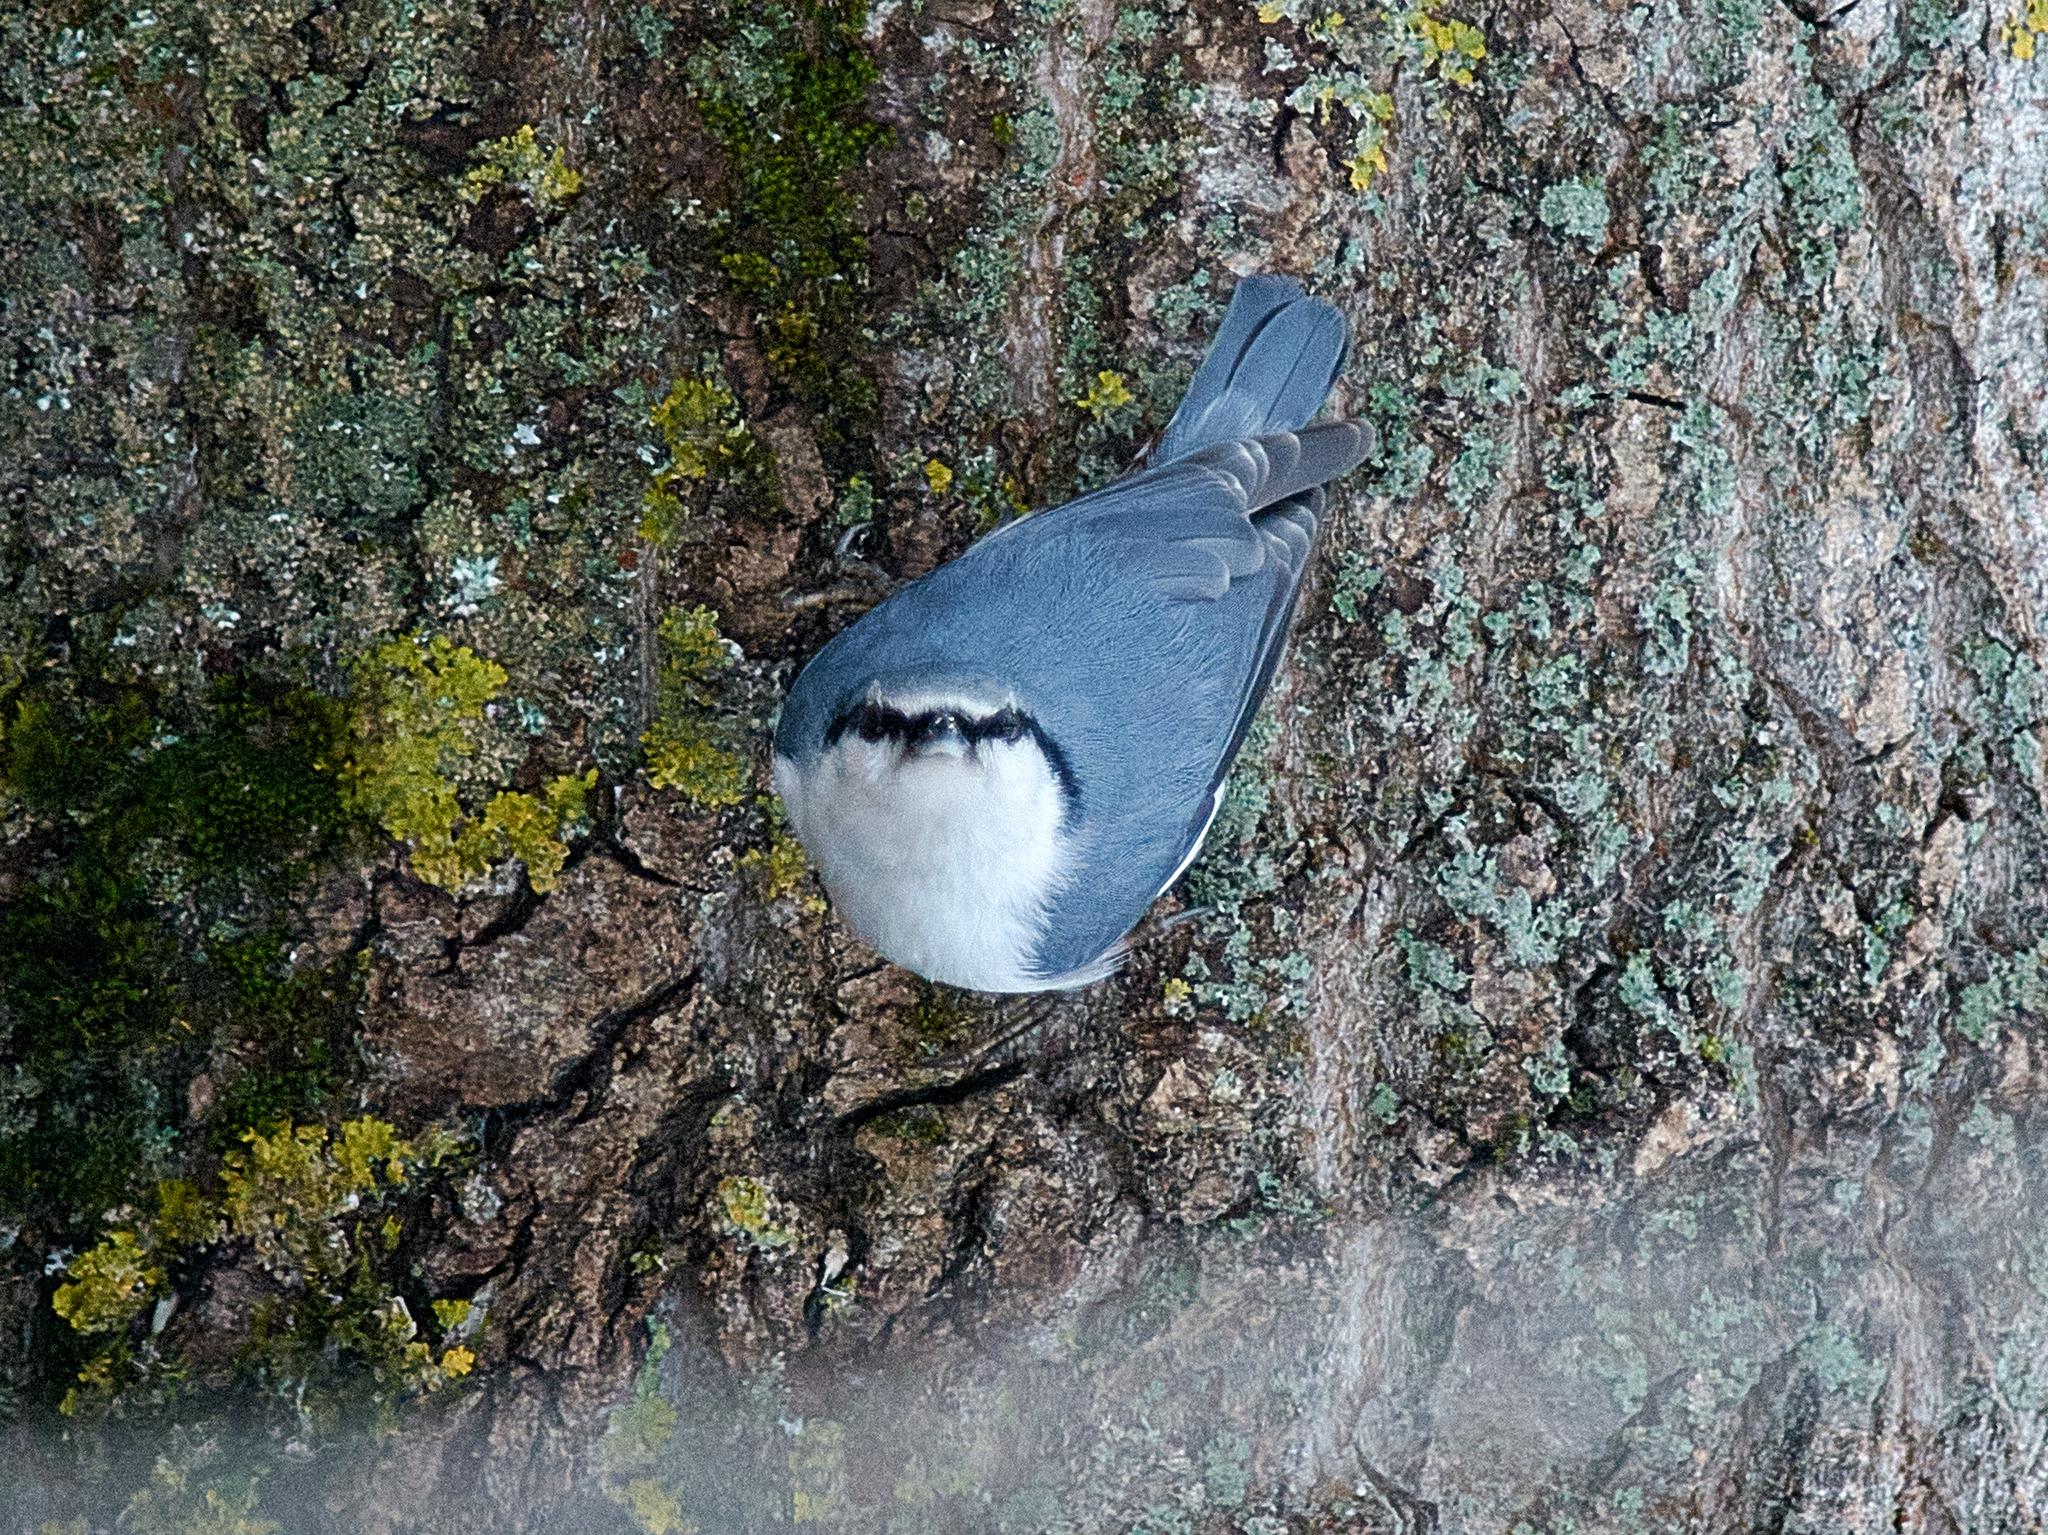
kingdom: Animalia
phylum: Chordata
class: Aves
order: Passeriformes
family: Sittidae
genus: Sitta
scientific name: Sitta europaea
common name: Eurasian nuthatch
